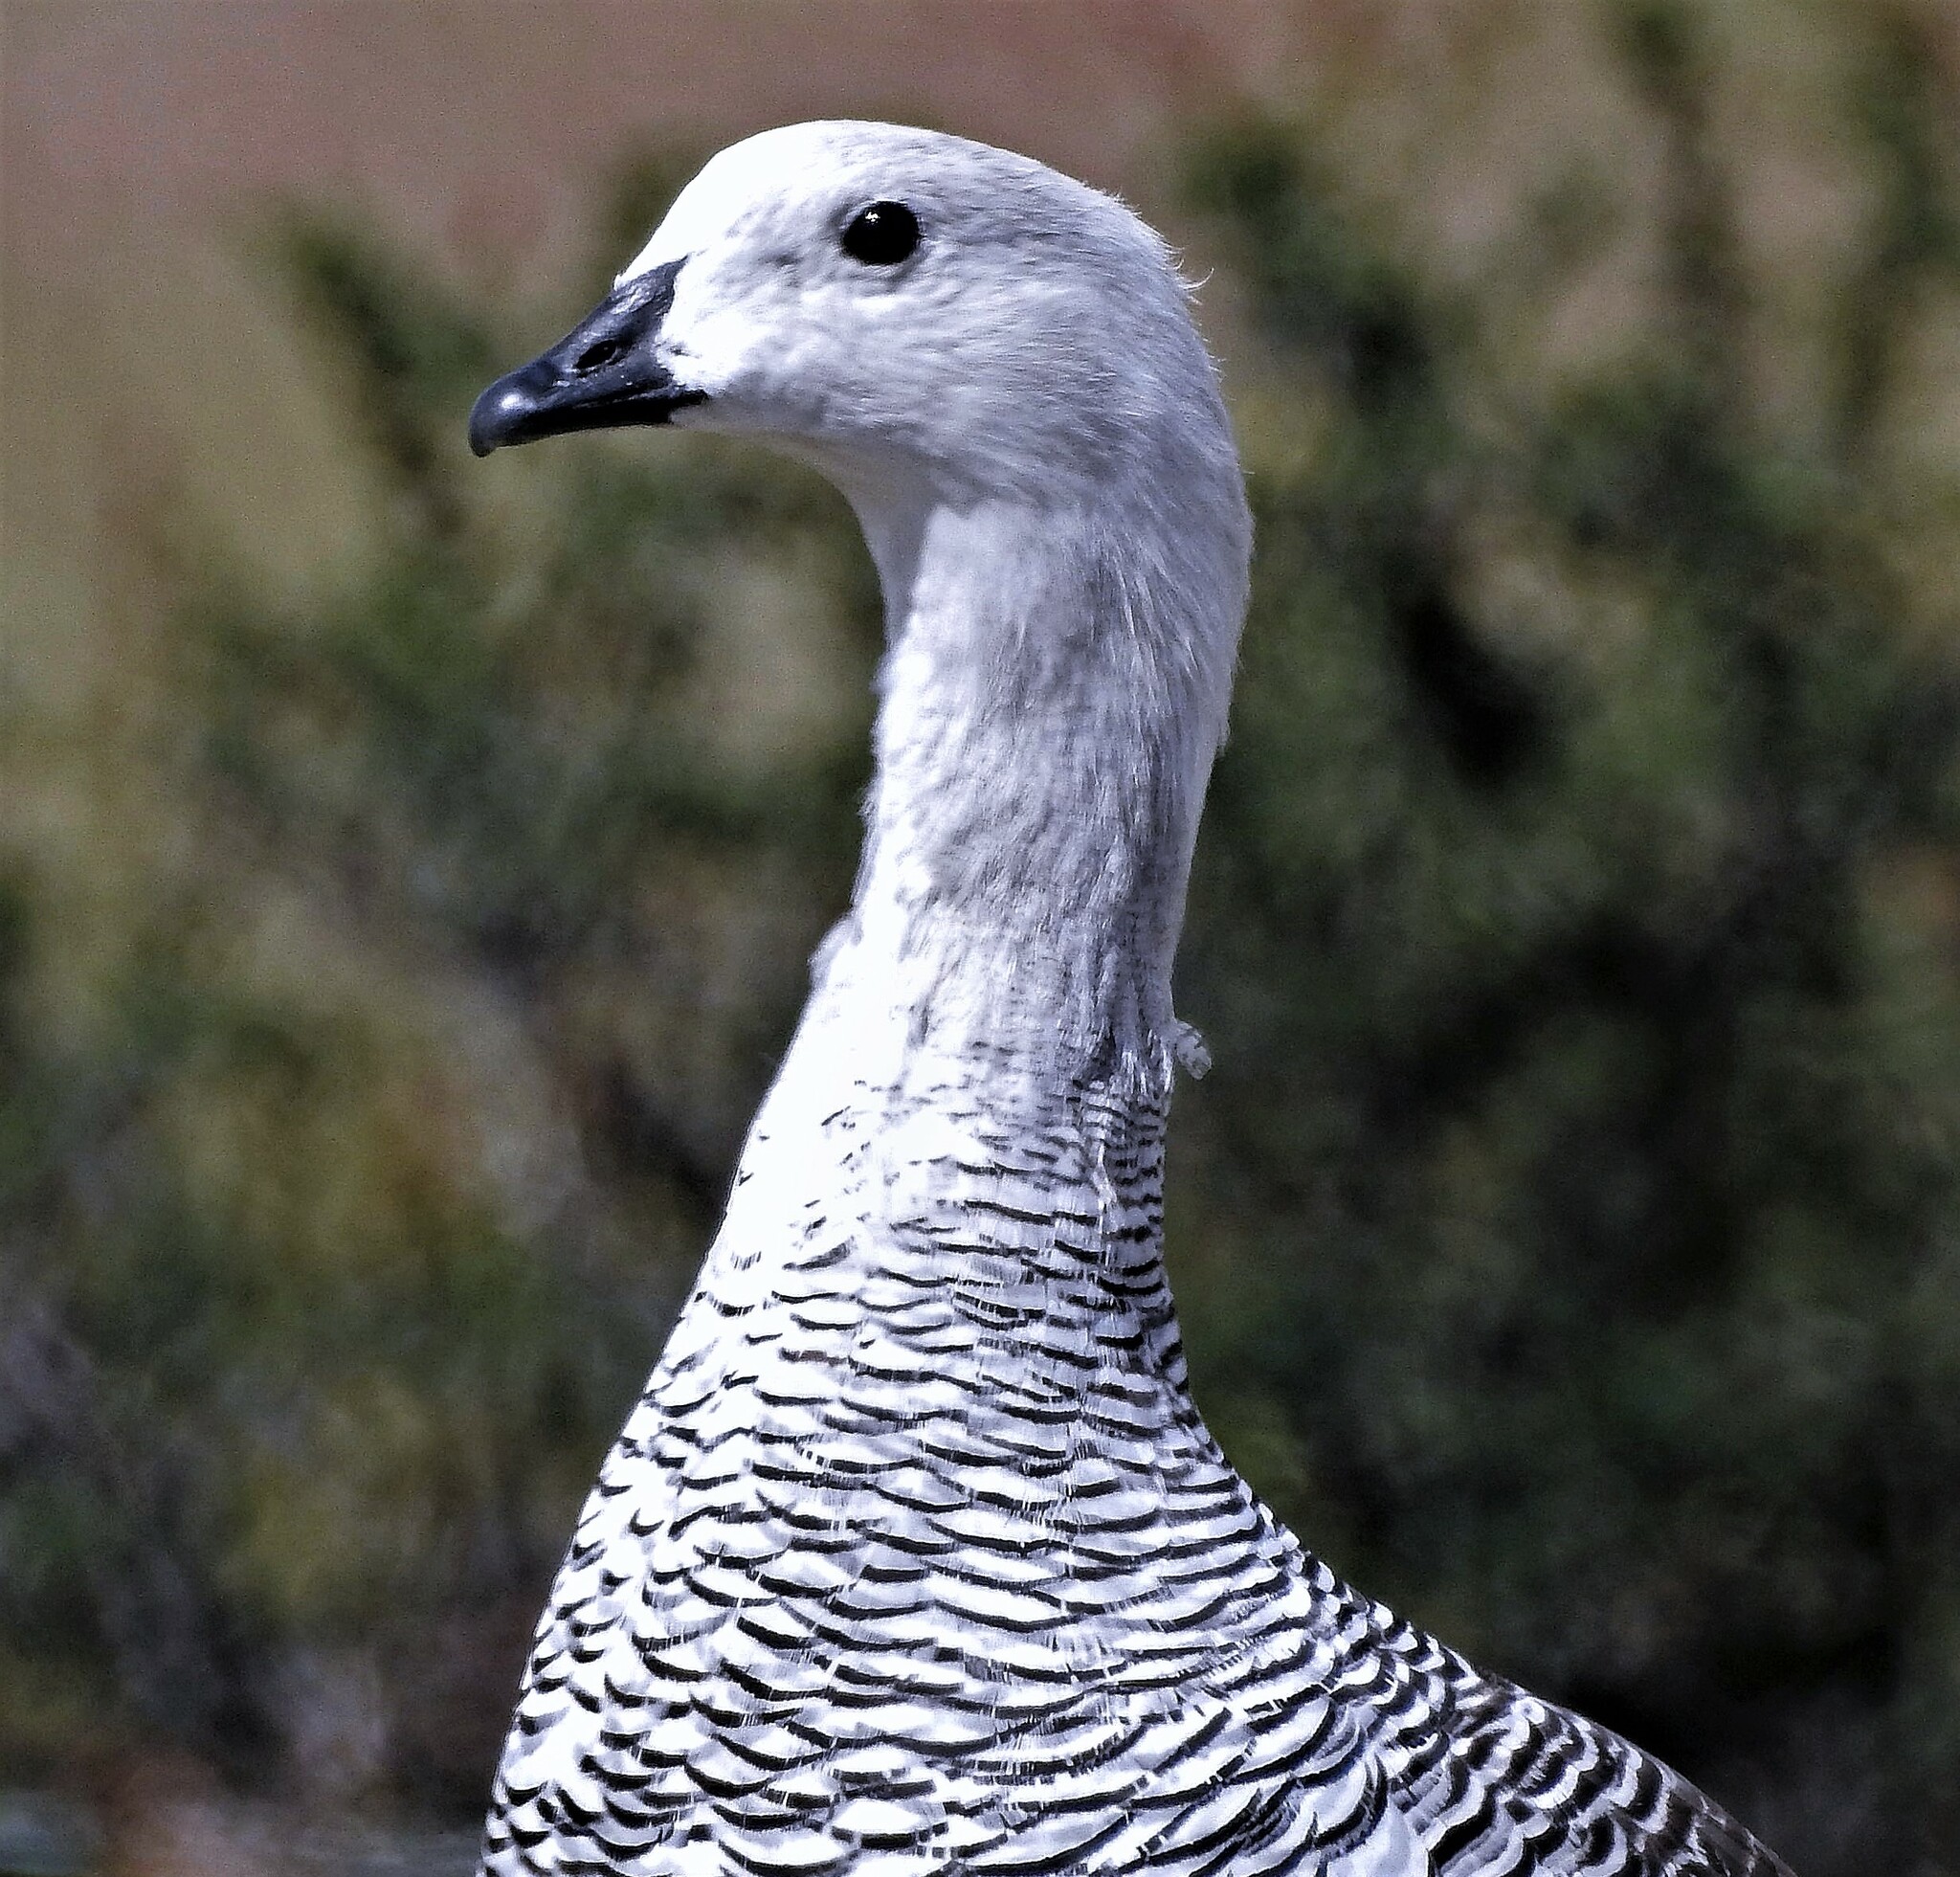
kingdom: Animalia
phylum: Chordata
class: Aves
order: Anseriformes
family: Anatidae
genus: Chloephaga
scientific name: Chloephaga picta
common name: Upland goose
